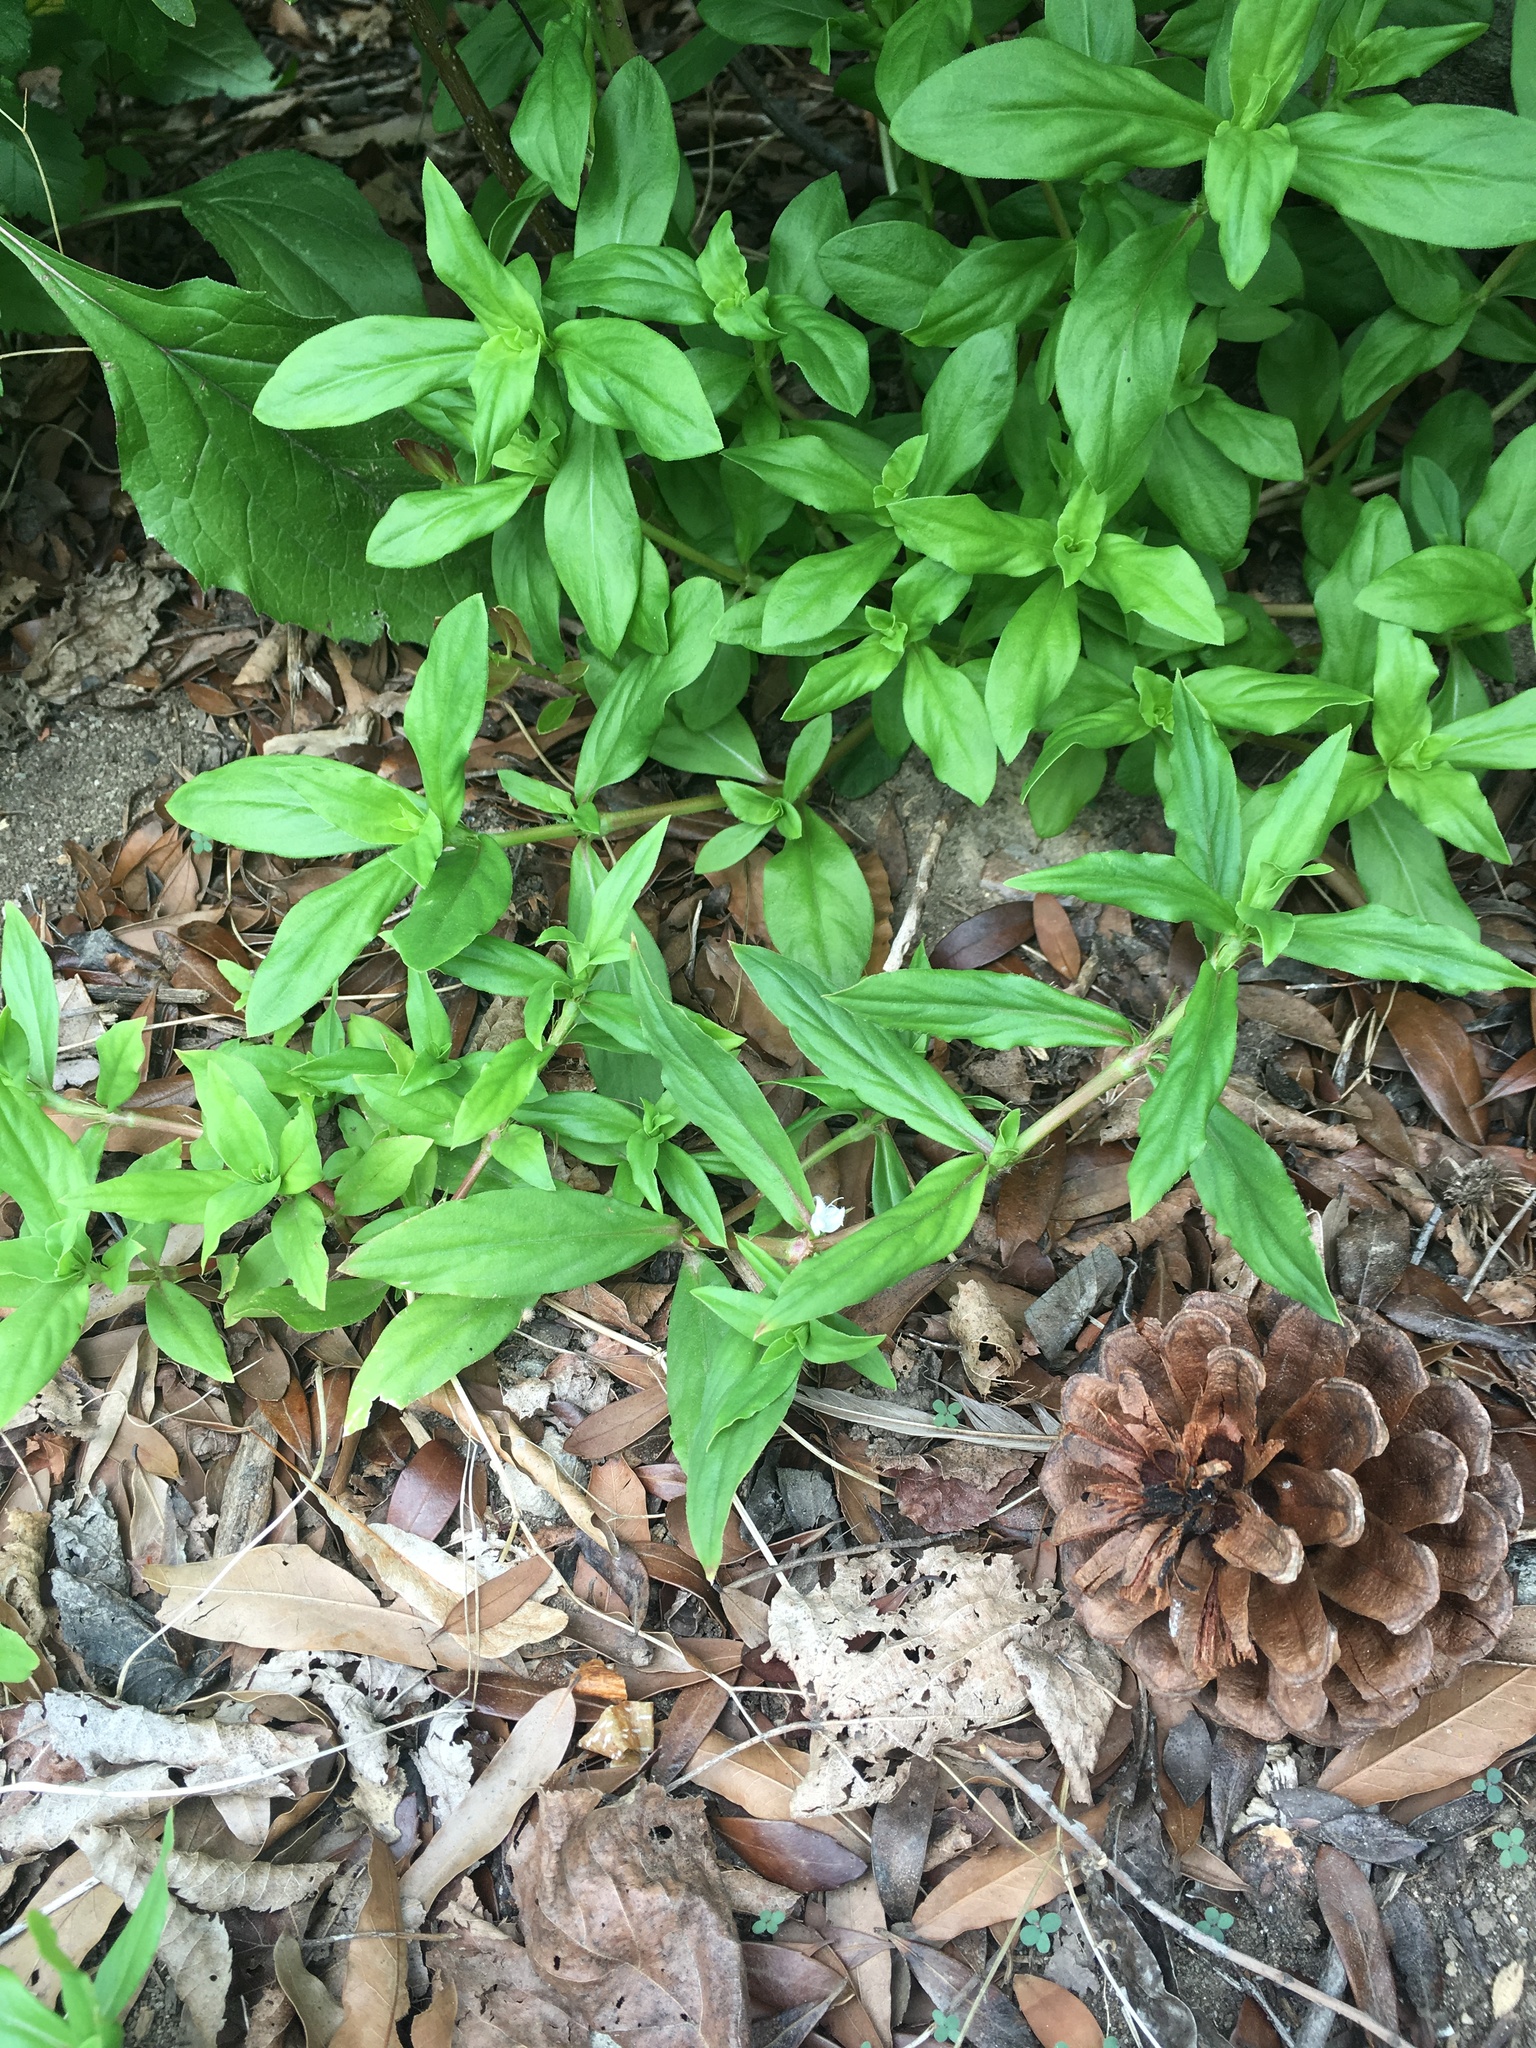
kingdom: Plantae
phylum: Tracheophyta
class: Magnoliopsida
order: Gentianales
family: Rubiaceae
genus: Diodia
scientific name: Diodia virginiana
